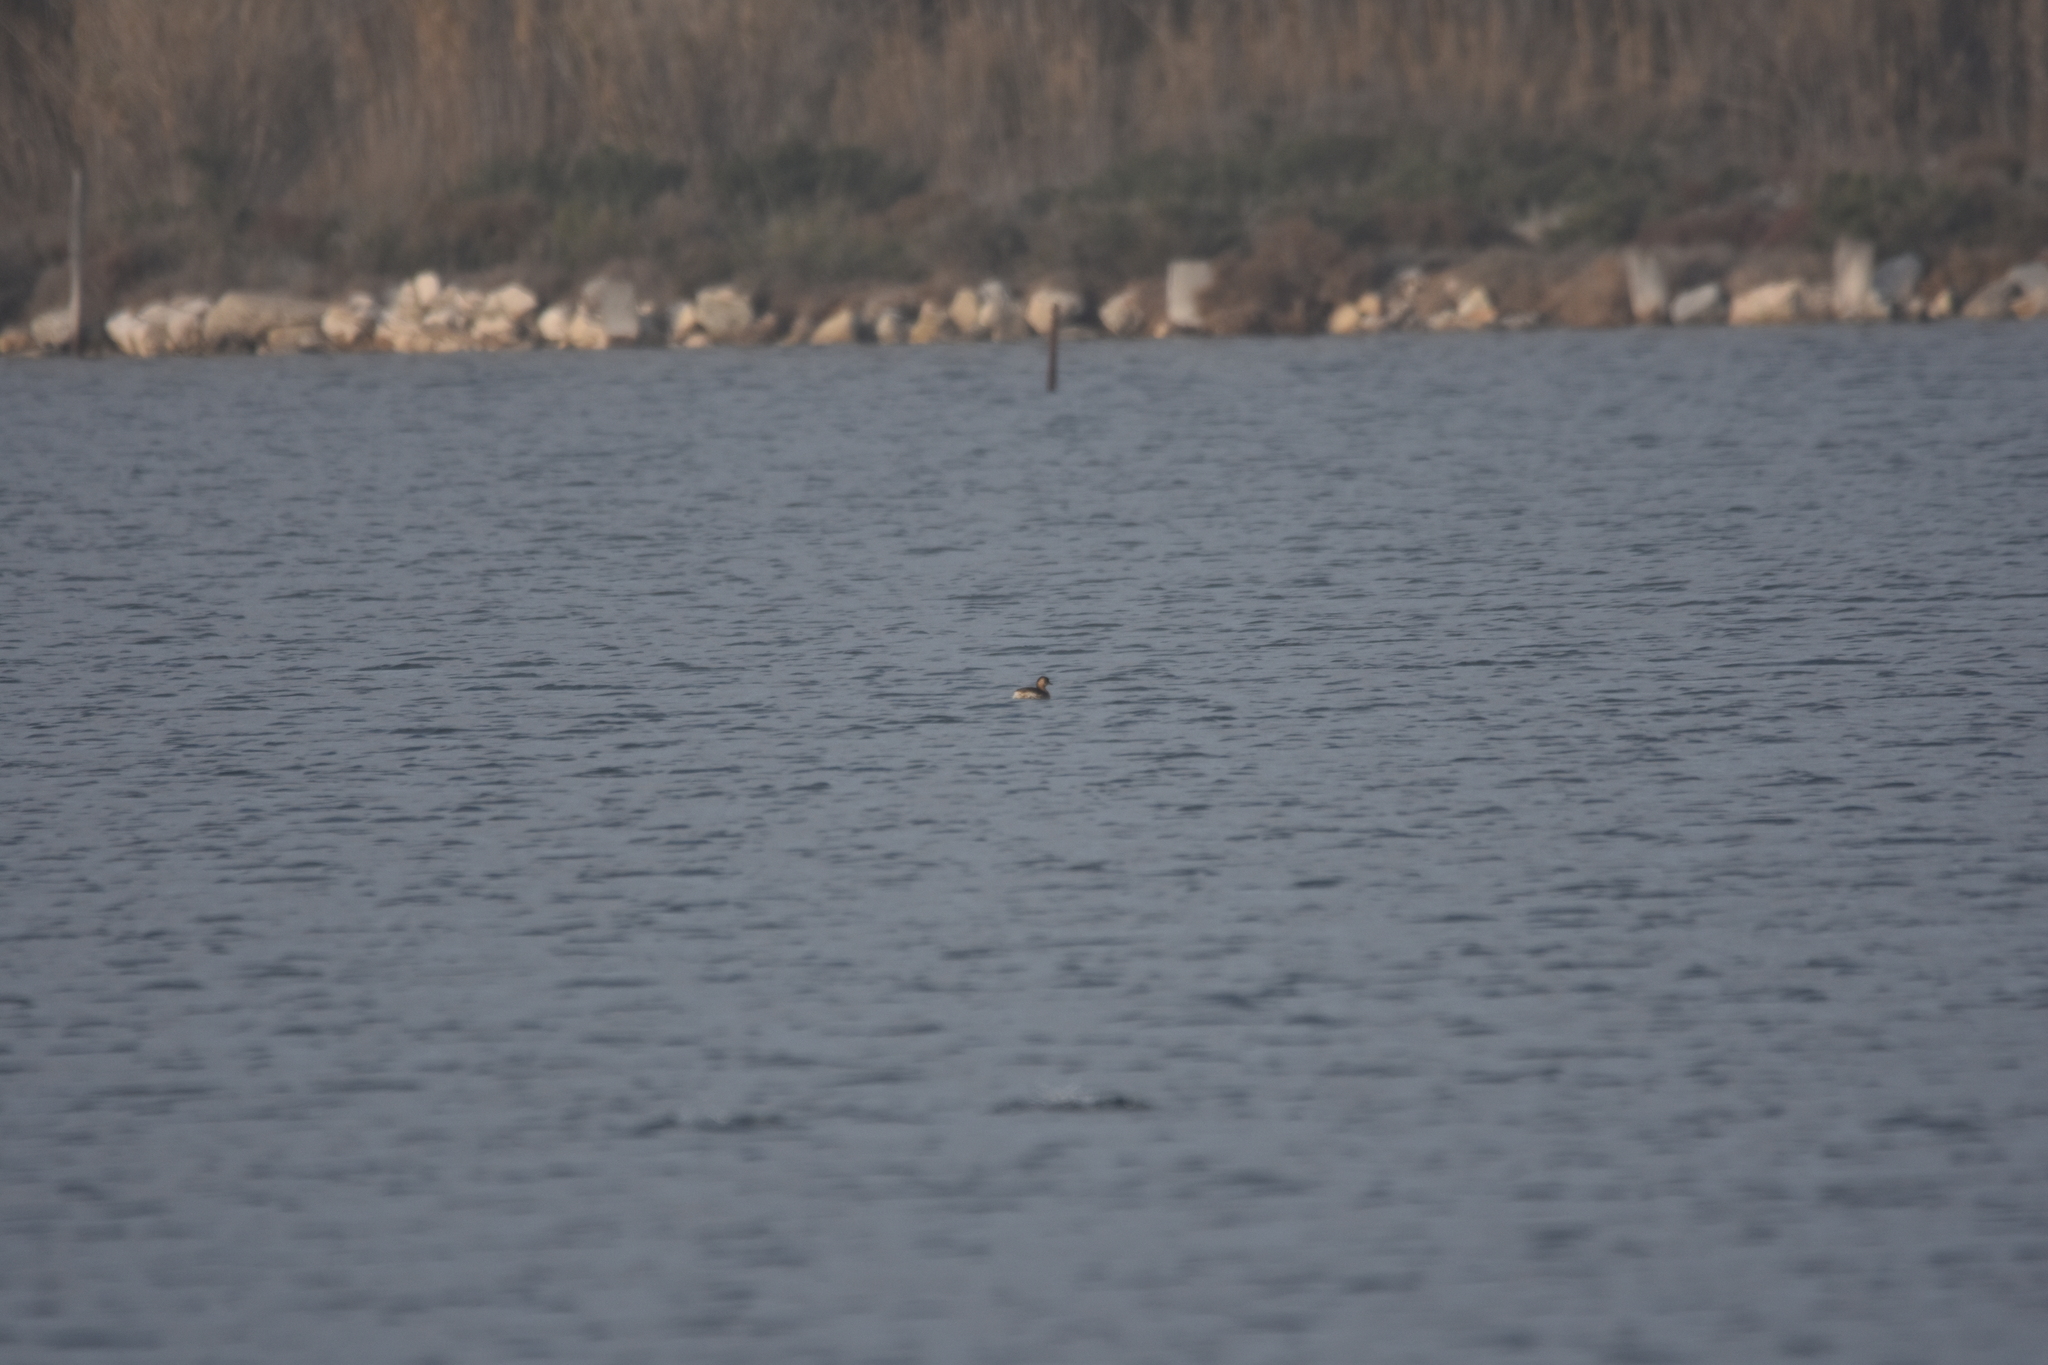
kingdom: Animalia
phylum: Chordata
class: Aves
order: Podicipediformes
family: Podicipedidae
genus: Tachybaptus
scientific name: Tachybaptus ruficollis
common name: Little grebe
